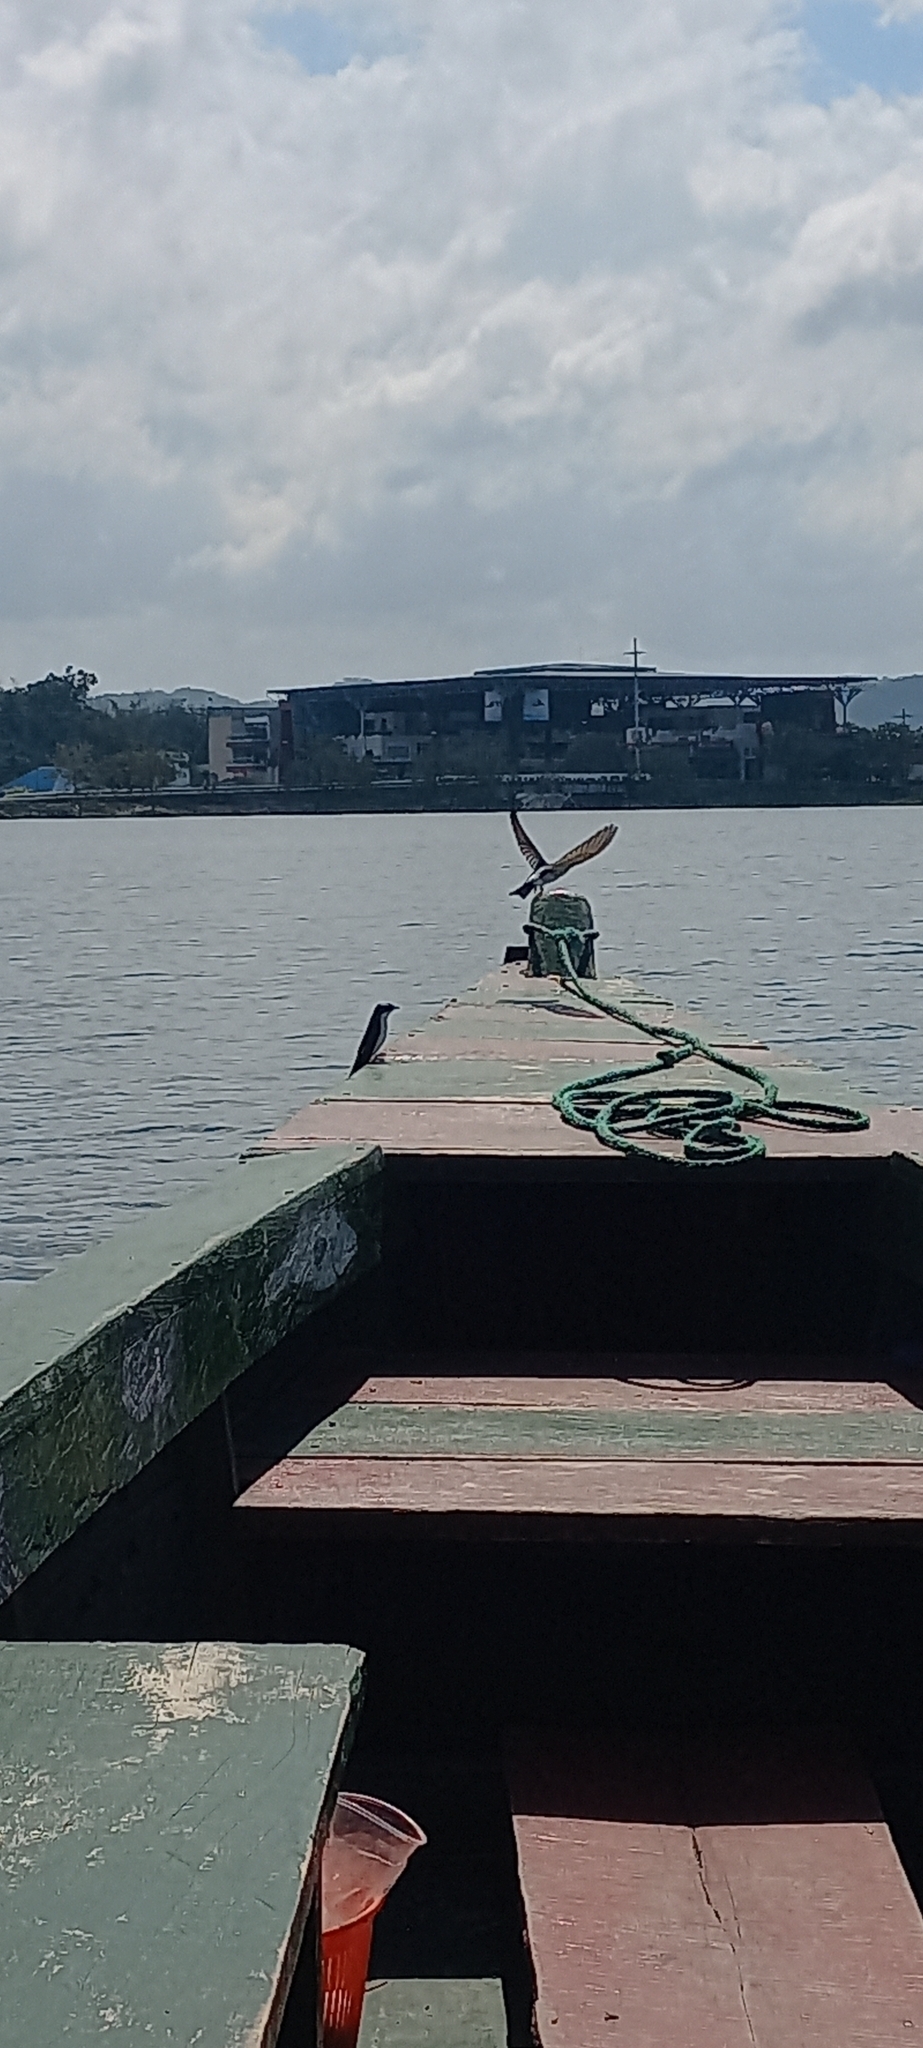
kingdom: Animalia
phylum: Chordata
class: Aves
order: Passeriformes
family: Hirundinidae
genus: Tachycineta
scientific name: Tachycineta albilinea
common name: Mangrove swallow
